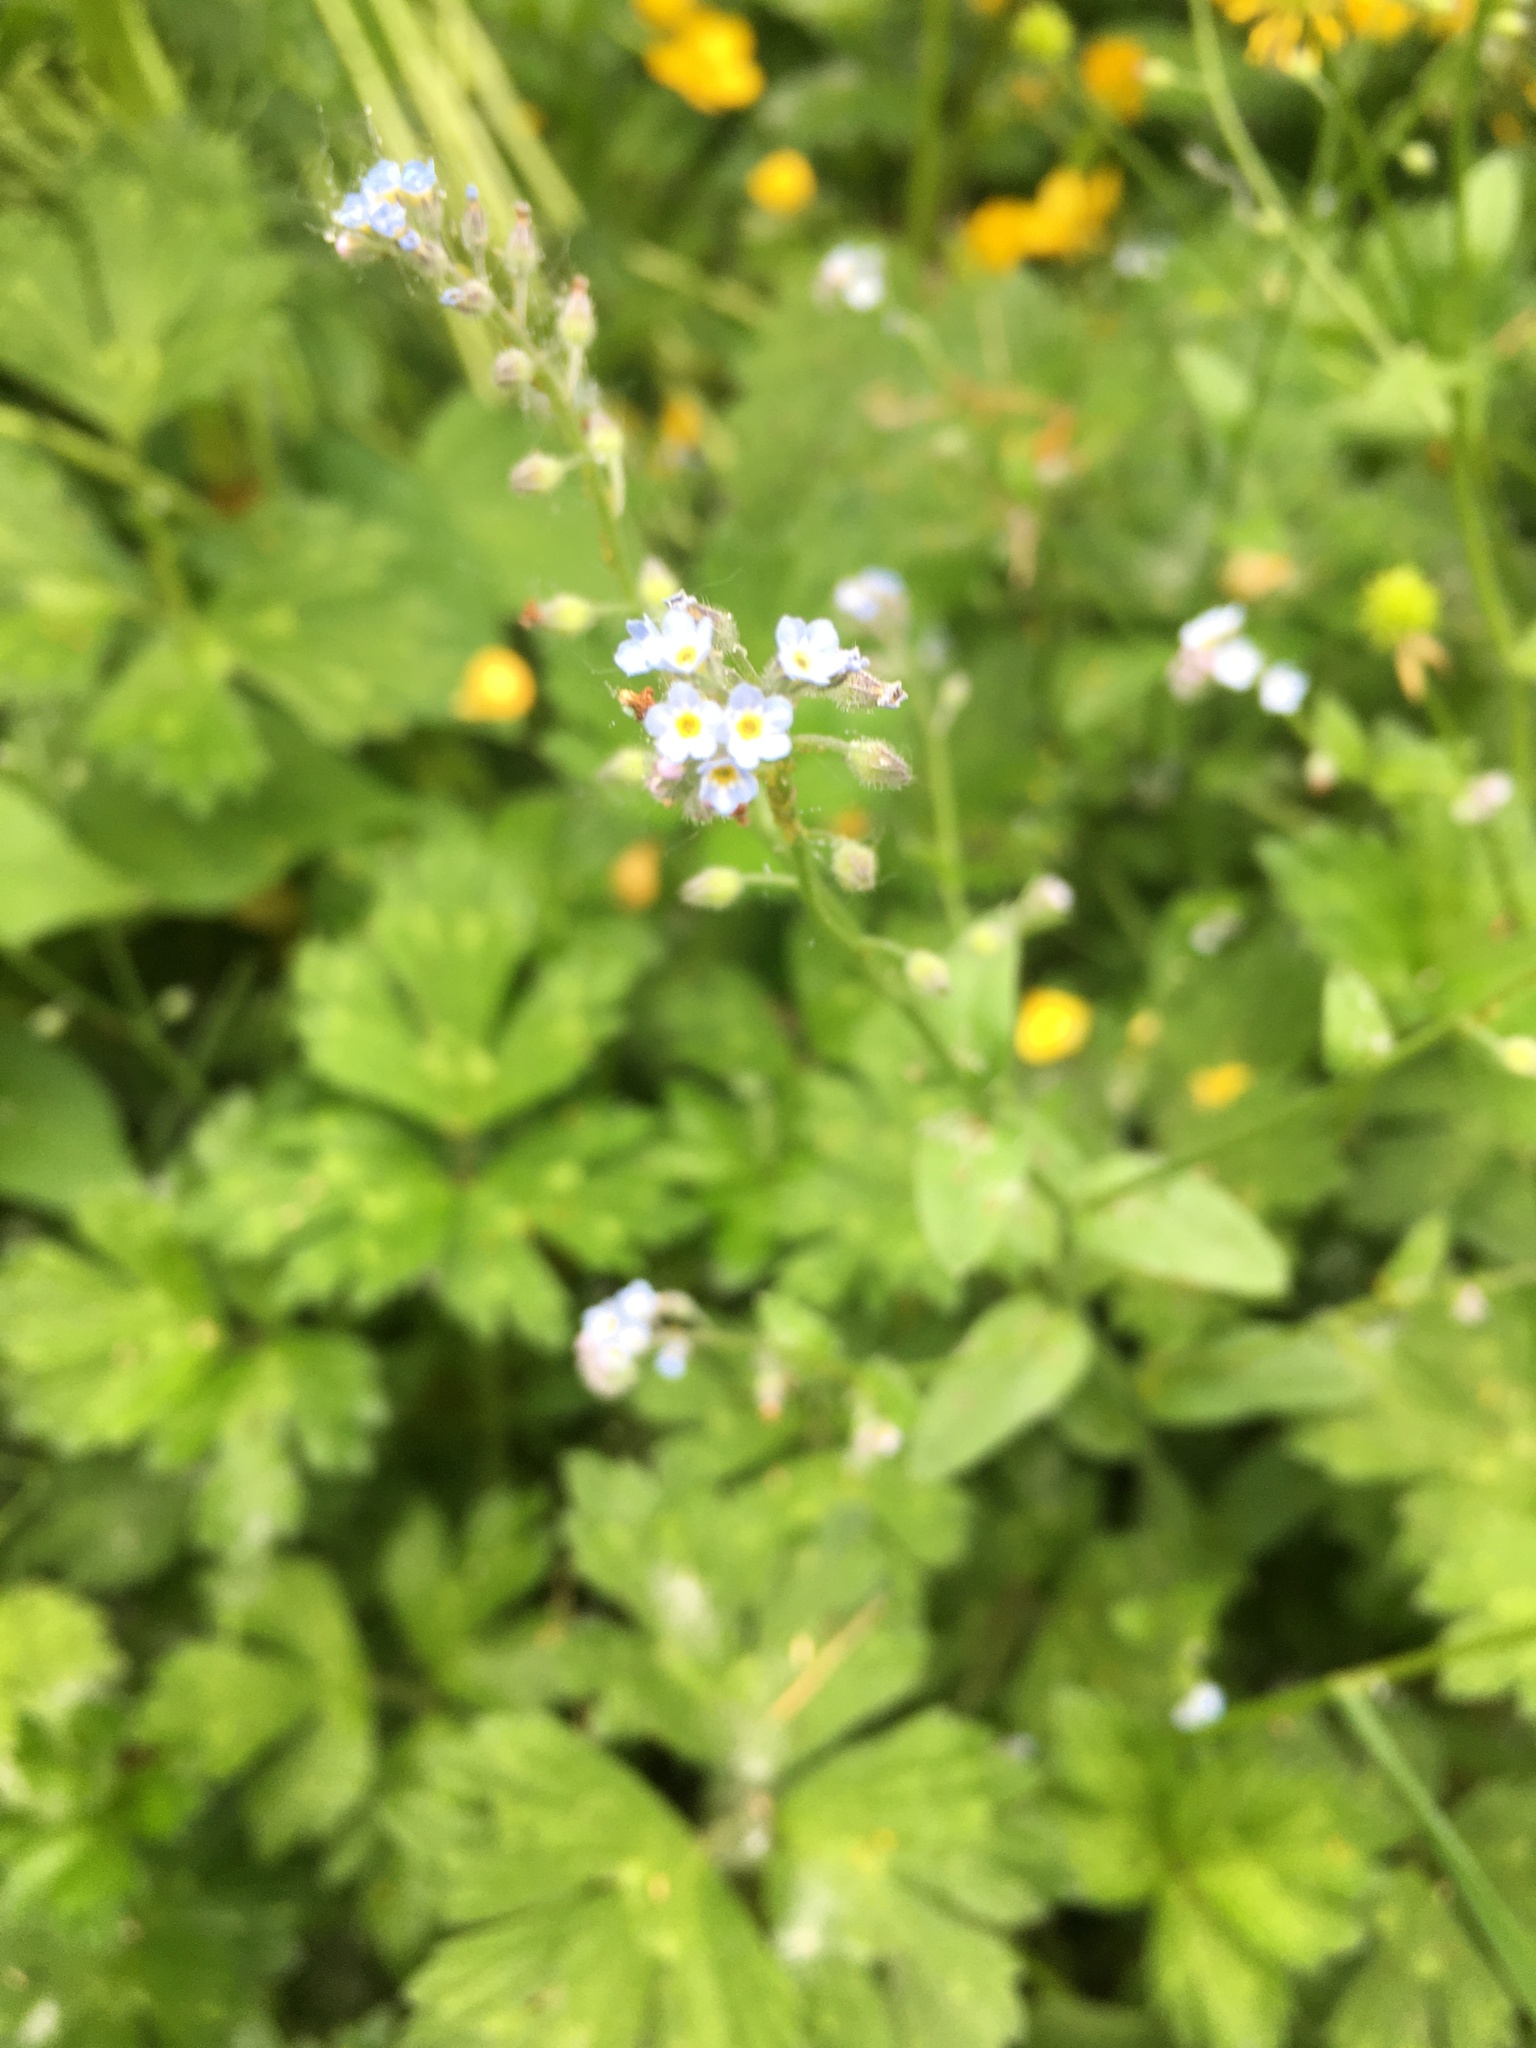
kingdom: Plantae
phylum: Tracheophyta
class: Magnoliopsida
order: Boraginales
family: Boraginaceae
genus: Myosotis
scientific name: Myosotis arvensis
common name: Field forget-me-not
